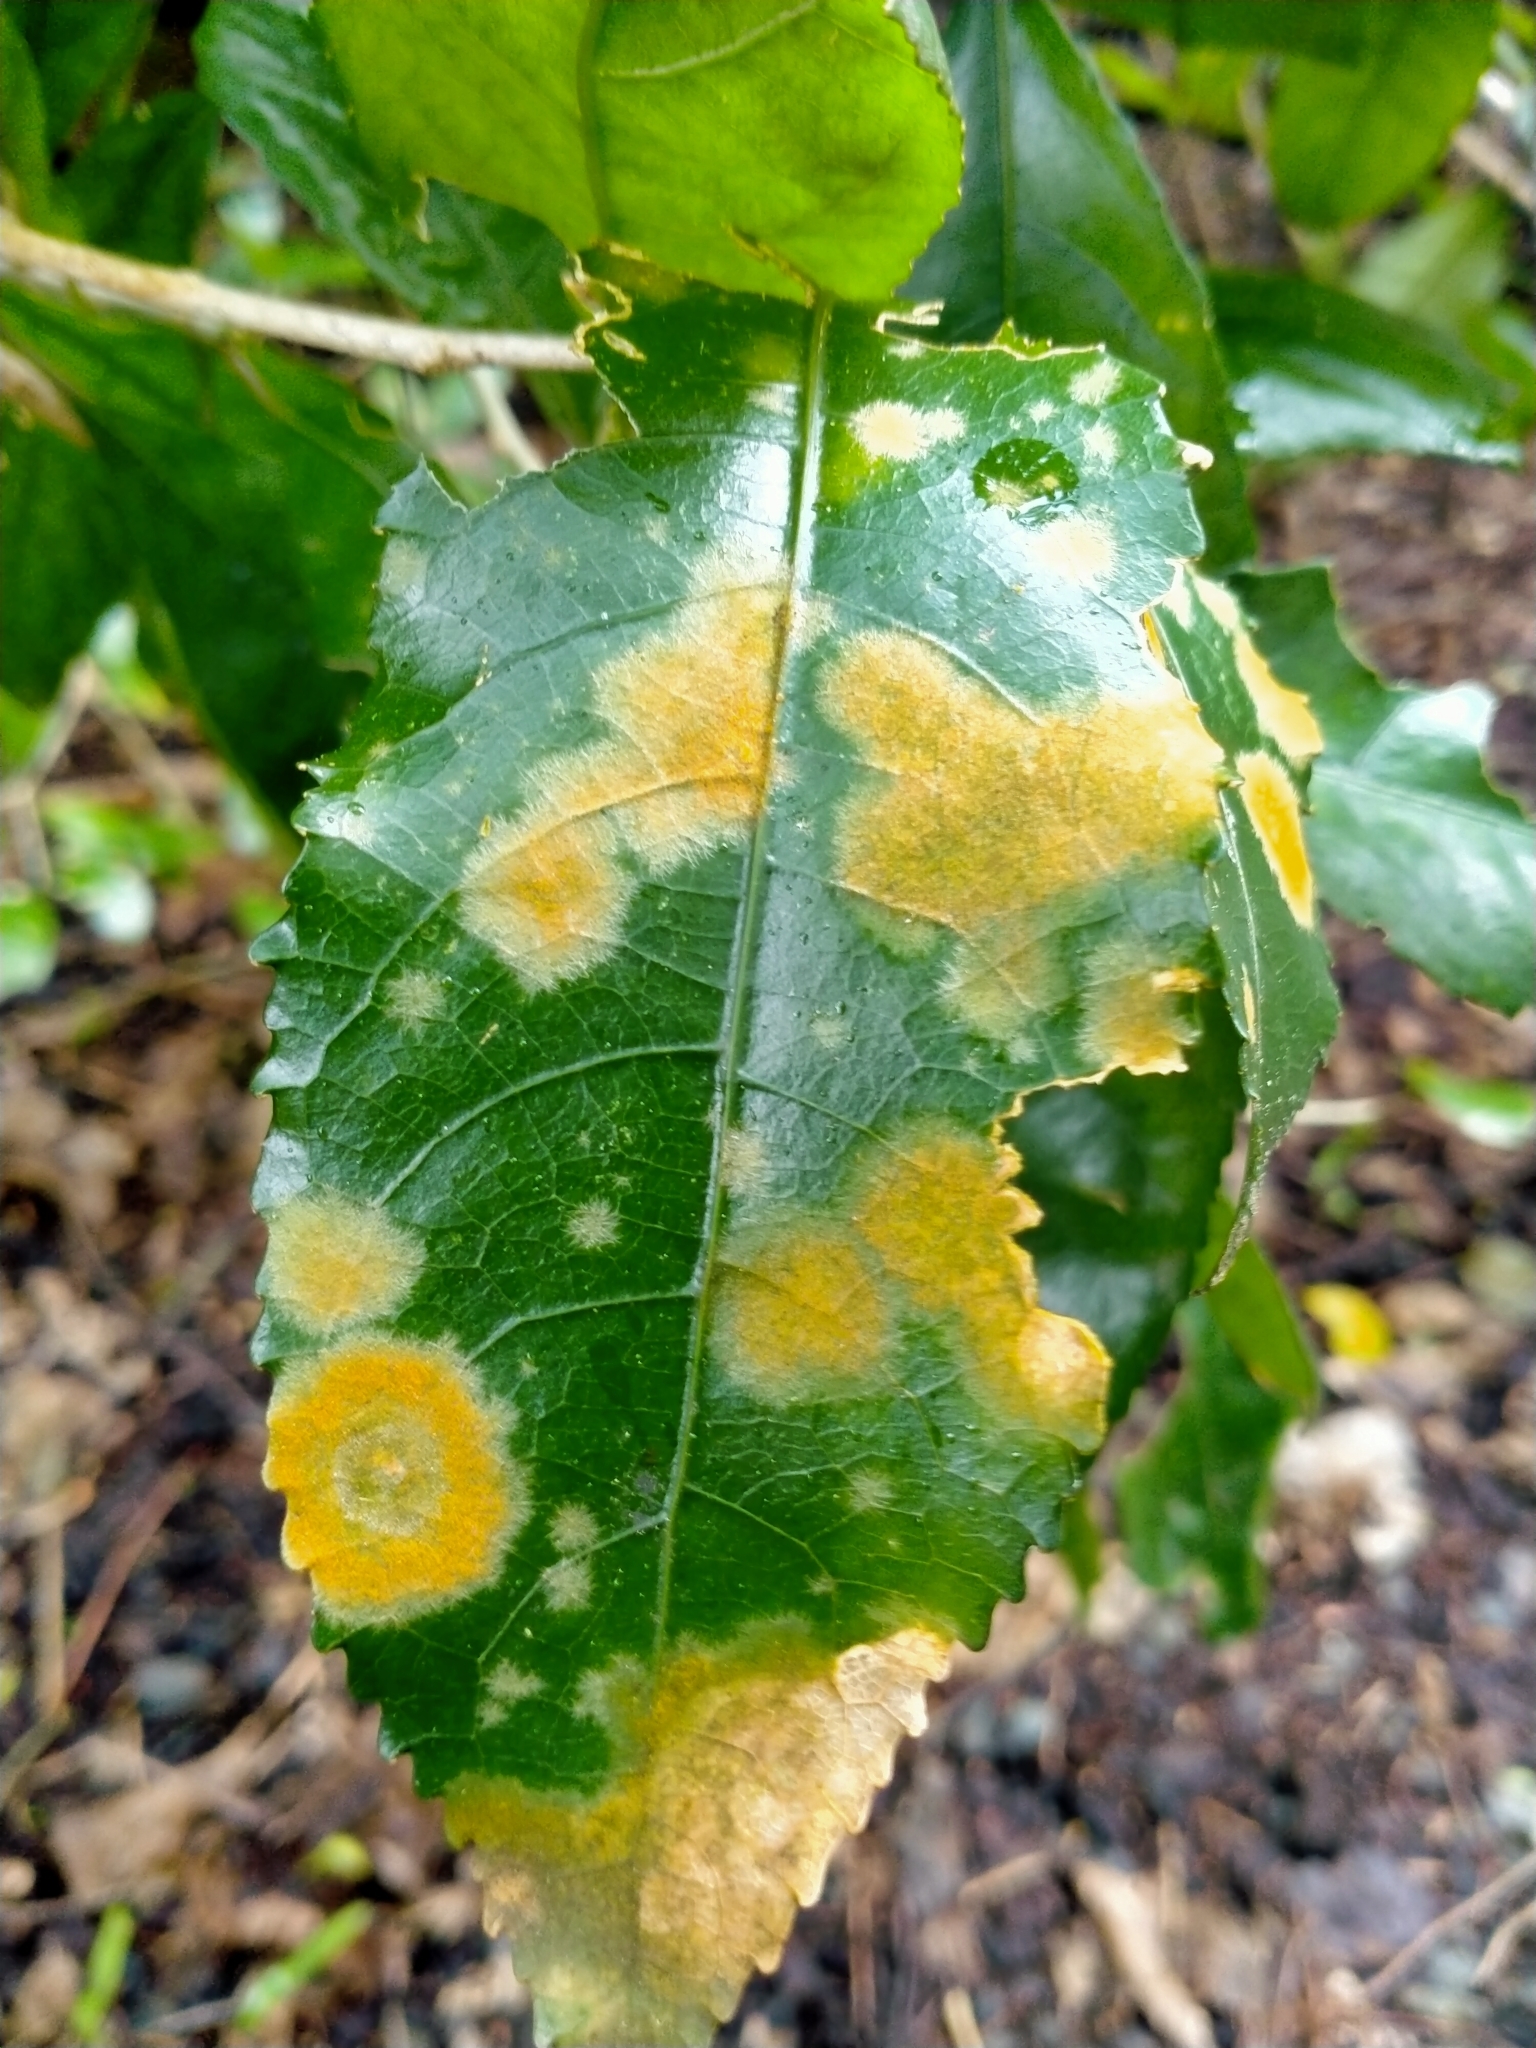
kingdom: Plantae
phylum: Chlorophyta
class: Ulvophyceae
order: Trentepohliales
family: Trentepohliaceae
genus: Cephaleuros
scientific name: Cephaleuros
